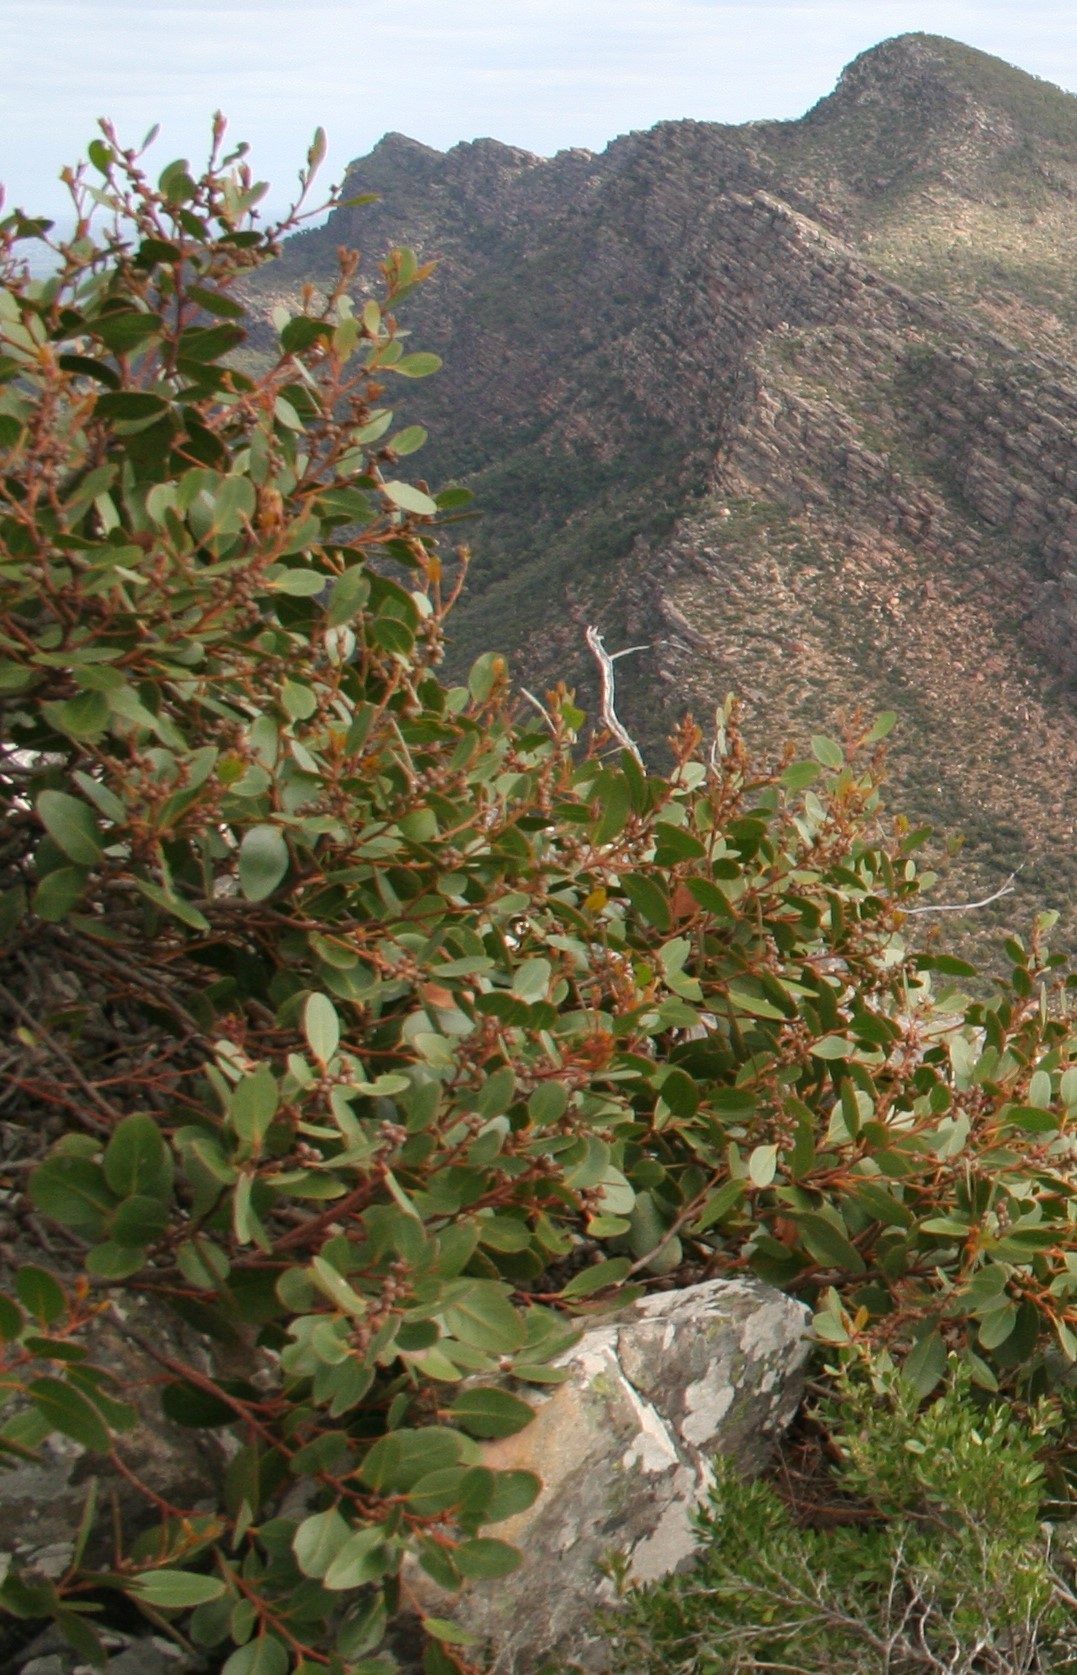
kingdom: Plantae
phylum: Tracheophyta
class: Magnoliopsida
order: Myrtales
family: Myrtaceae
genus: Eucalyptus
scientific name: Eucalyptus serraensis
